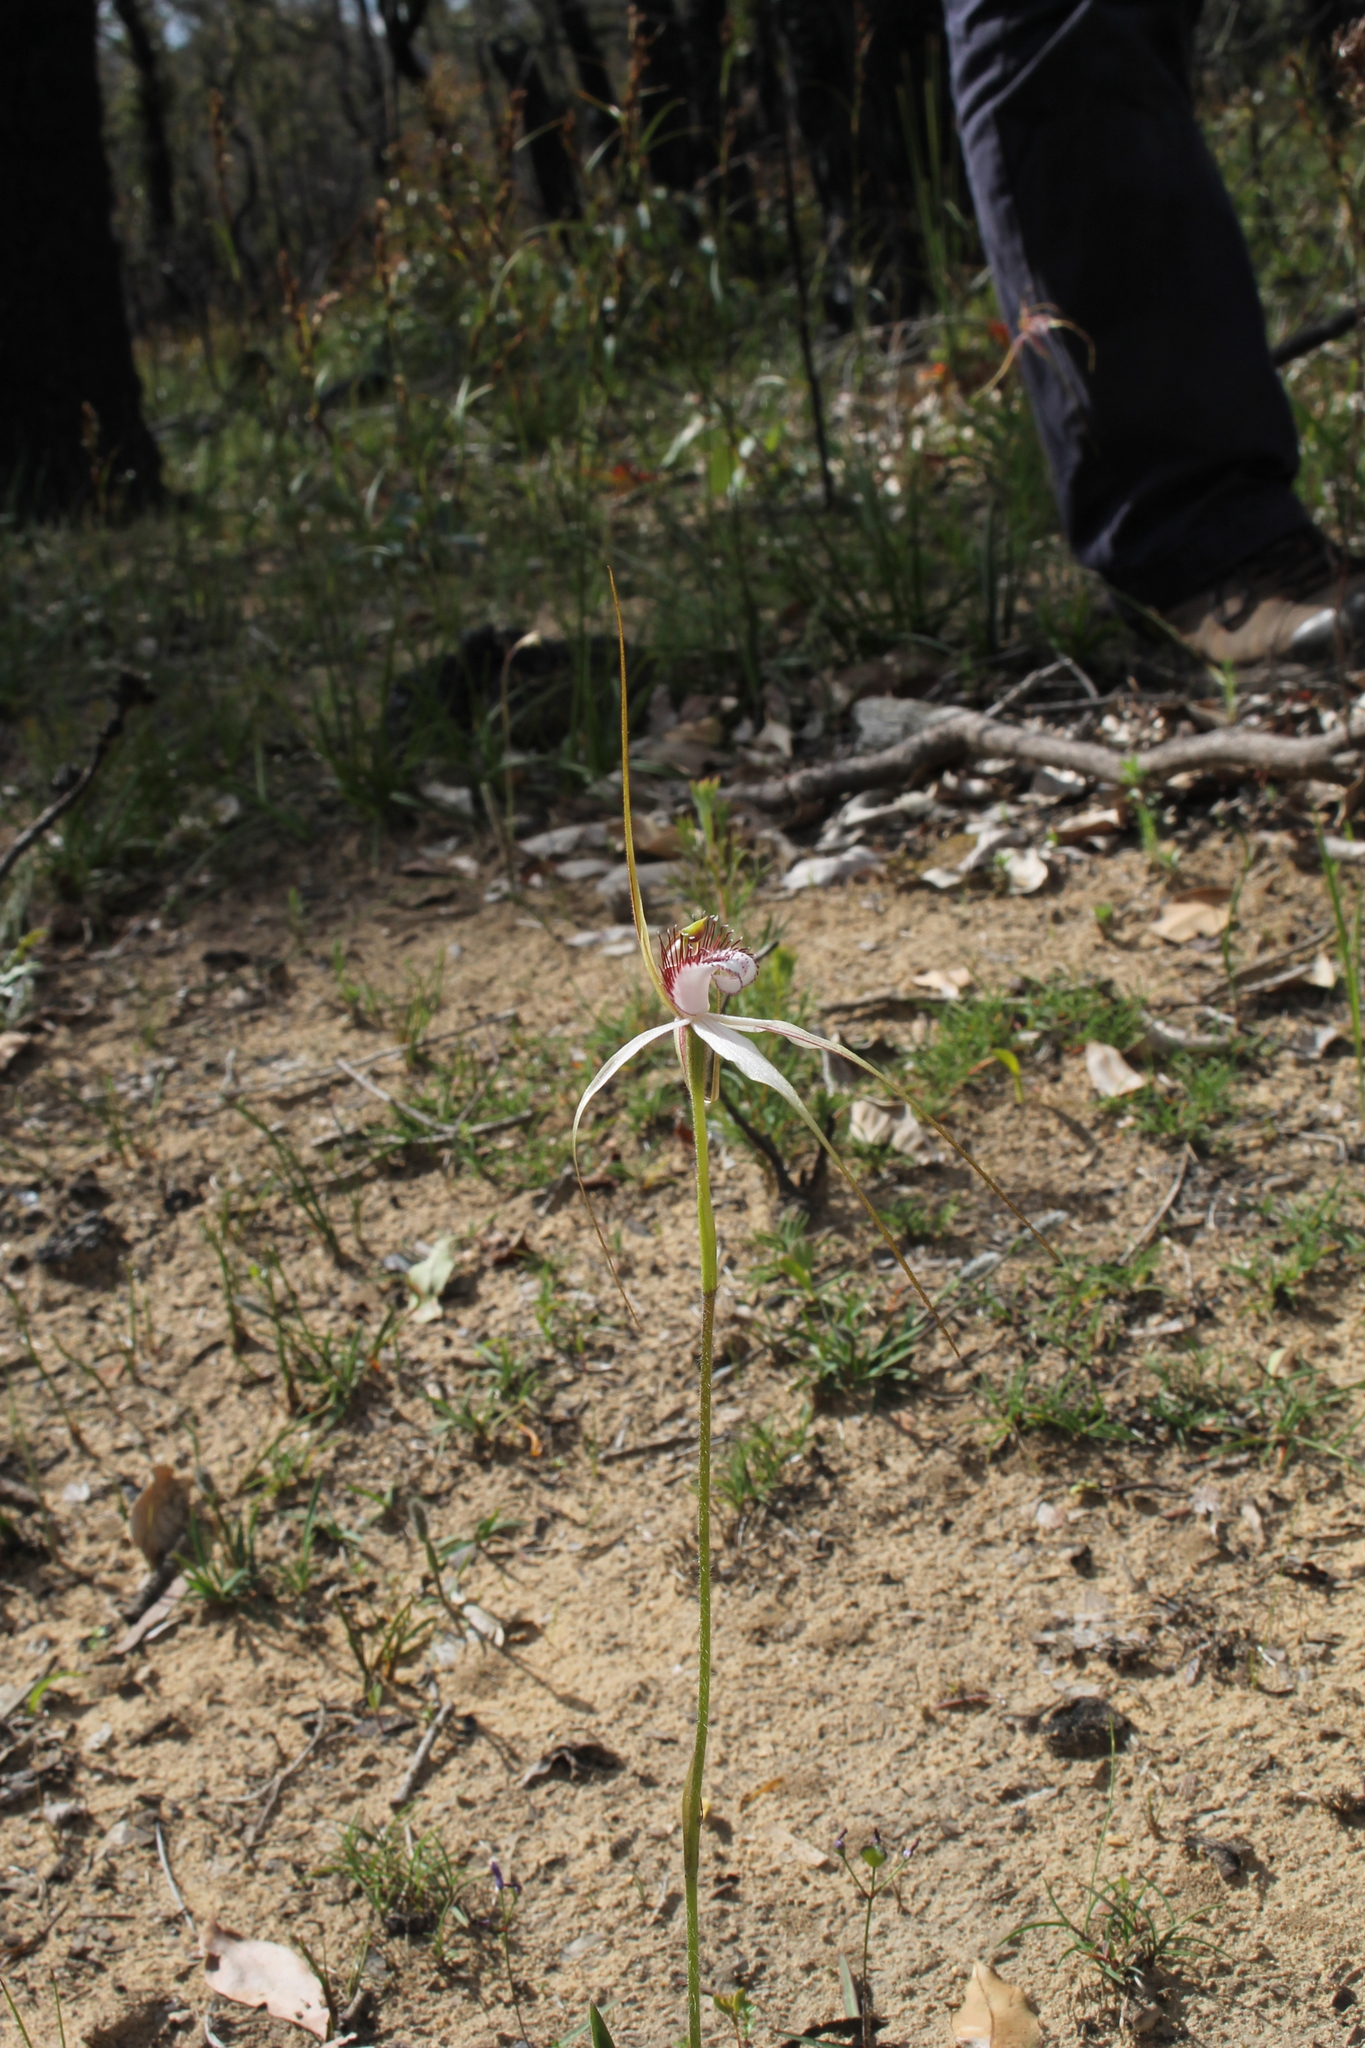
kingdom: Plantae
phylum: Tracheophyta
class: Liliopsida
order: Asparagales
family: Orchidaceae
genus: Caladenia
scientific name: Caladenia longicauda
